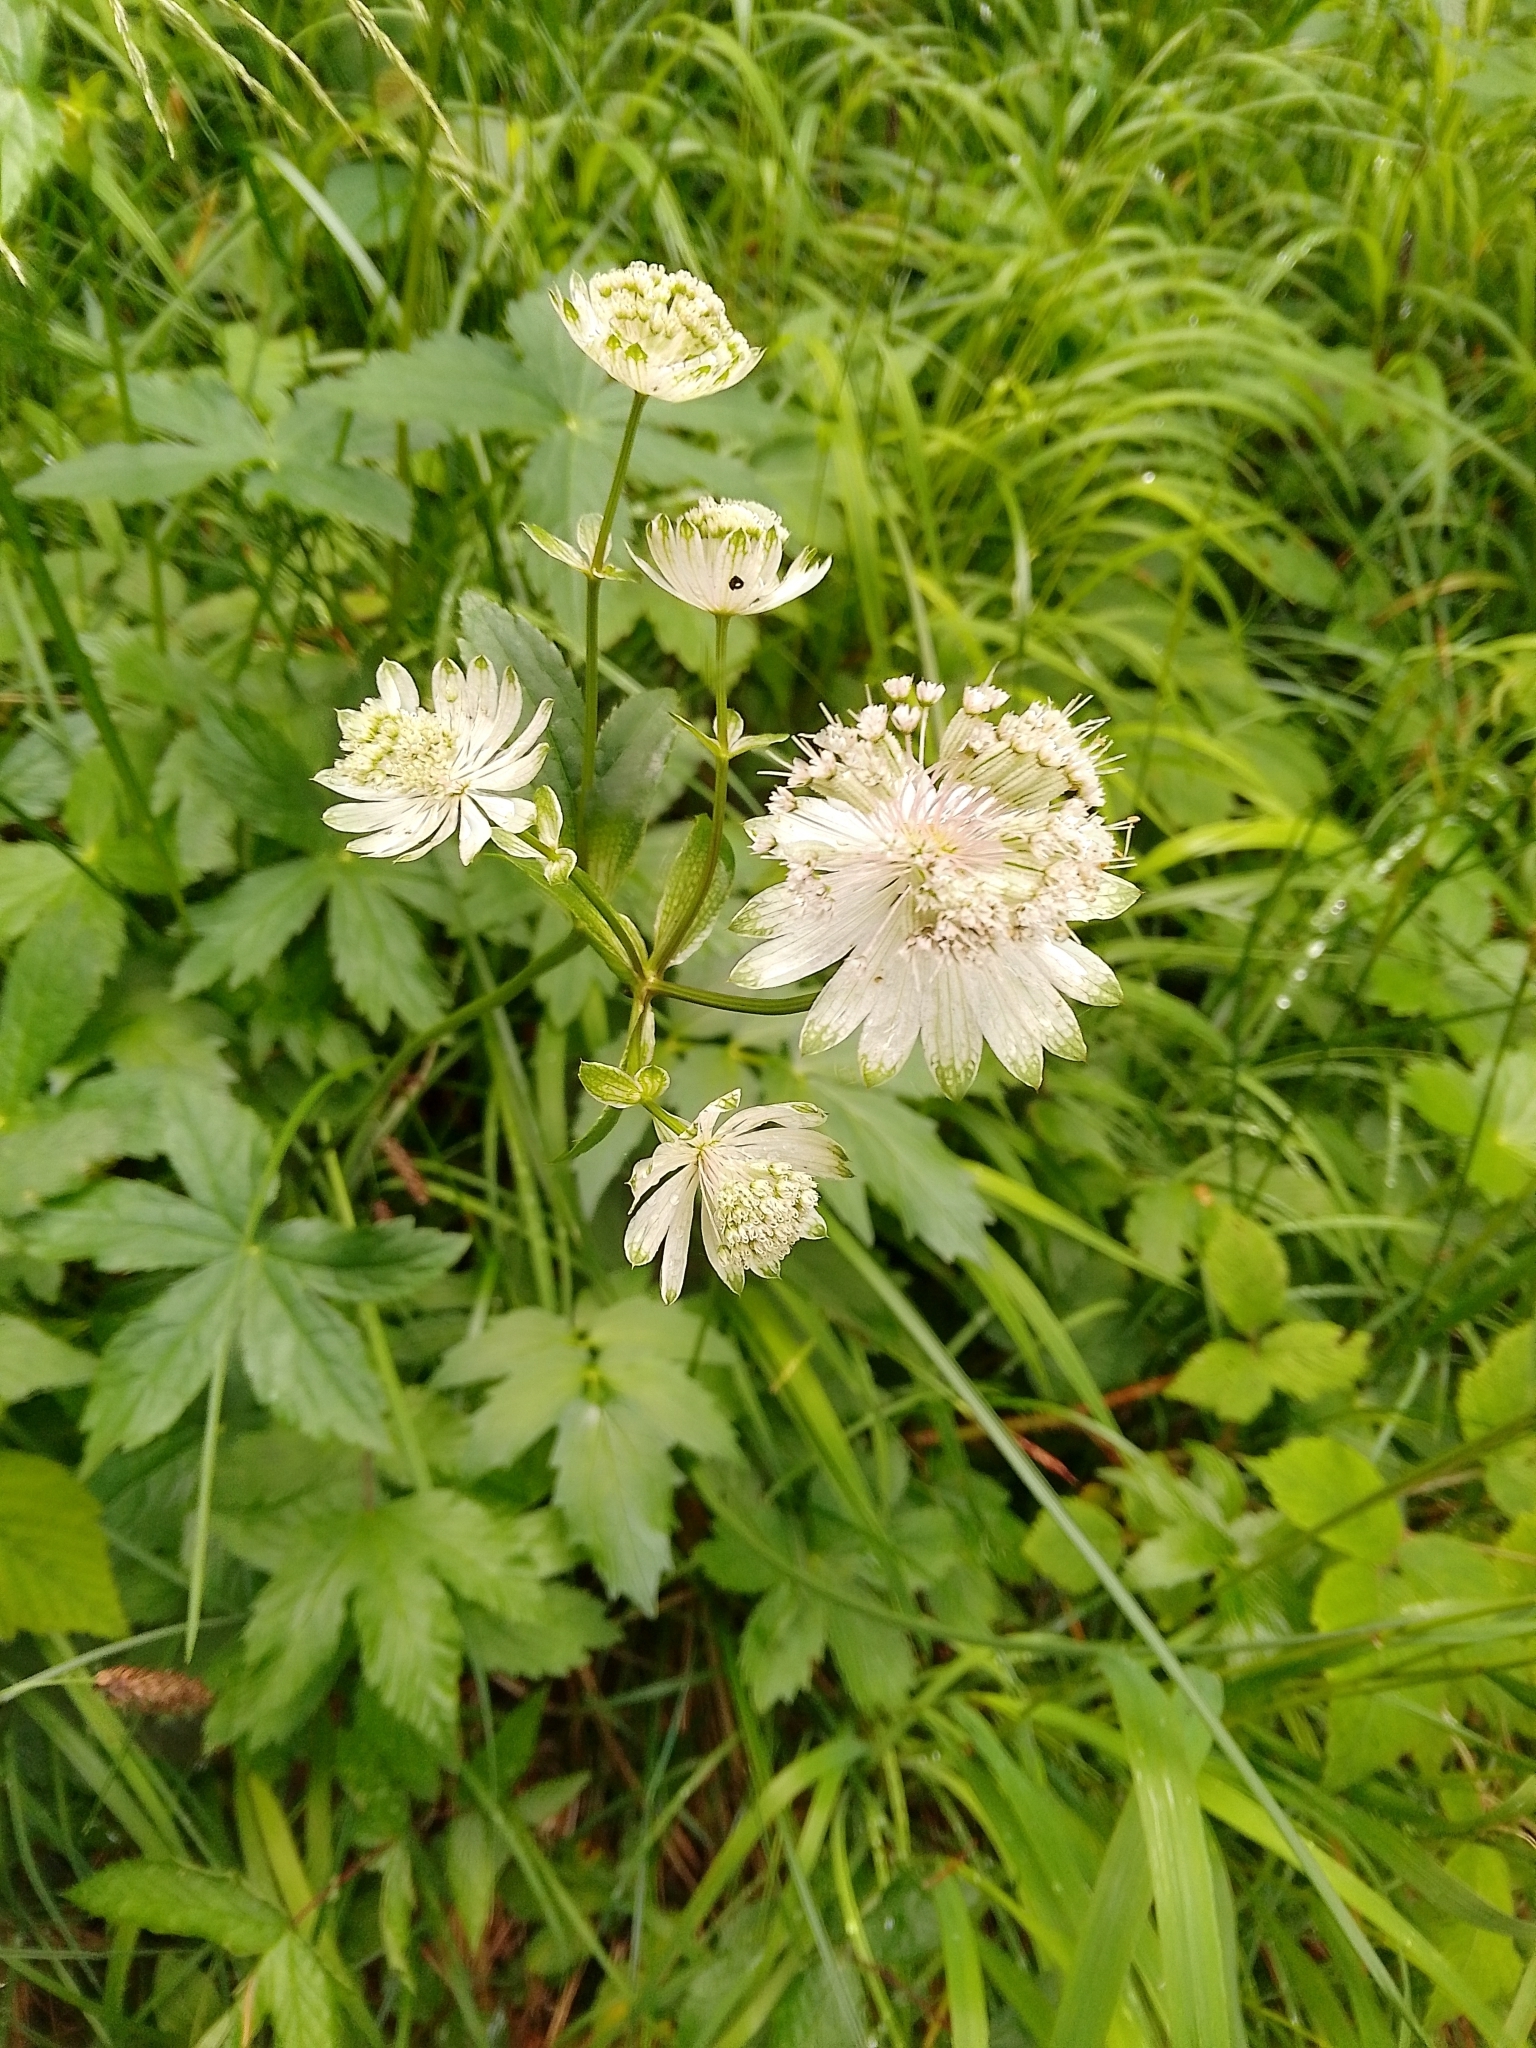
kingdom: Plantae
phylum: Tracheophyta
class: Magnoliopsida
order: Apiales
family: Apiaceae
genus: Astrantia
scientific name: Astrantia major
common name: Greater masterwort
